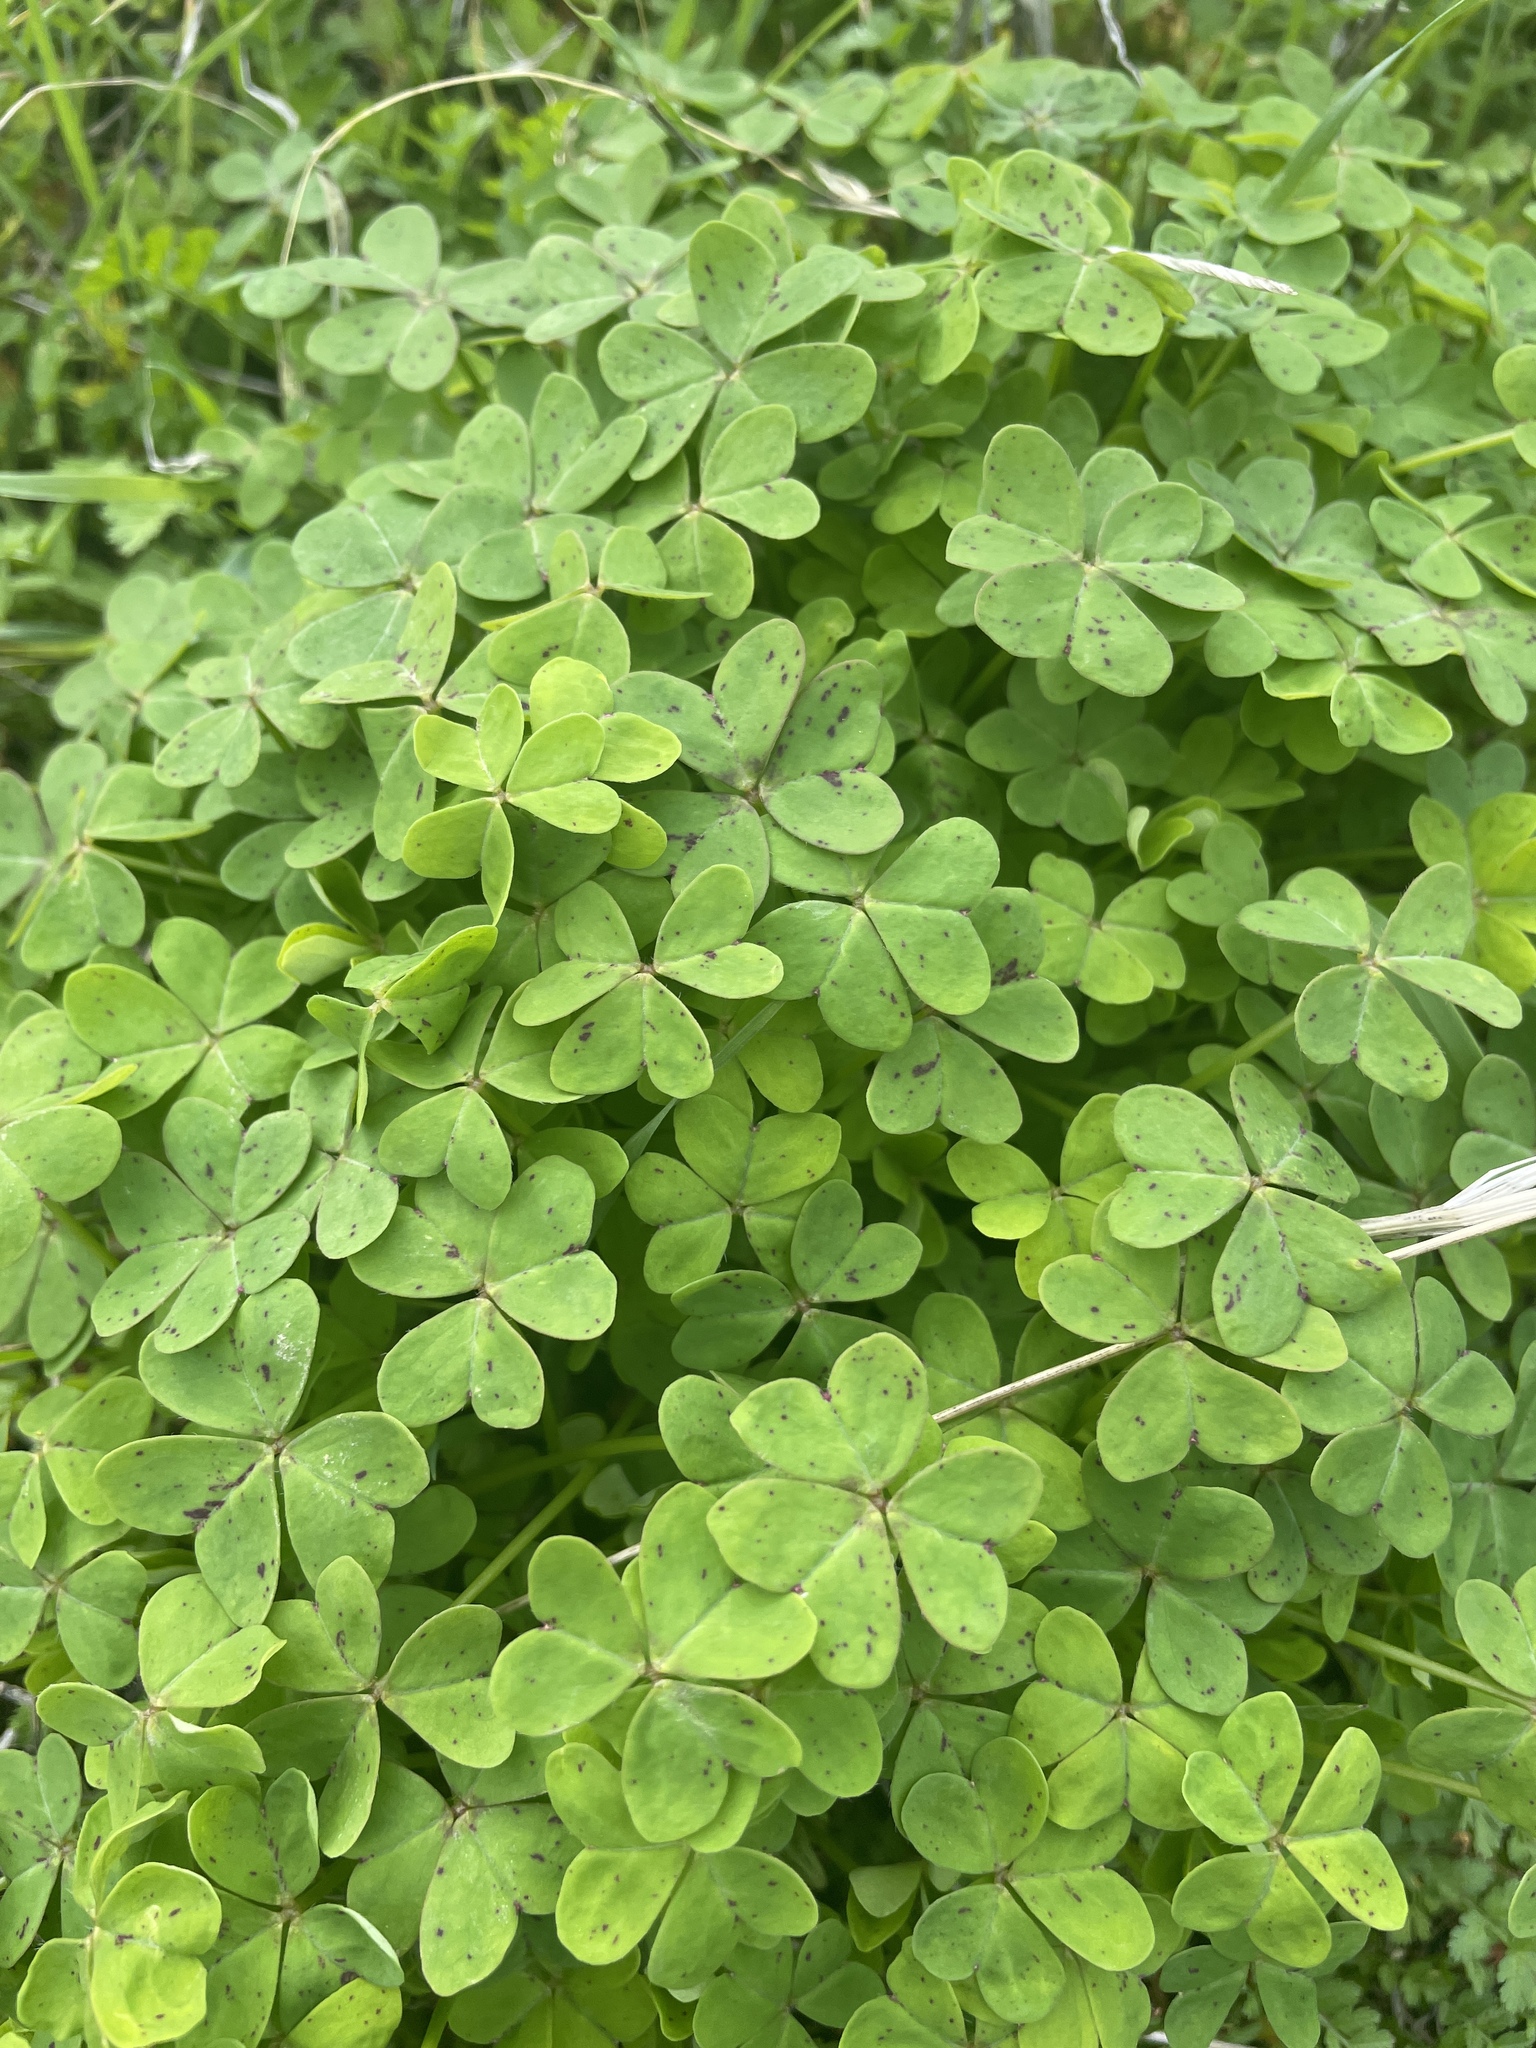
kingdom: Plantae
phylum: Tracheophyta
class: Magnoliopsida
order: Oxalidales
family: Oxalidaceae
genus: Oxalis
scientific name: Oxalis pes-caprae
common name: Bermuda-buttercup
